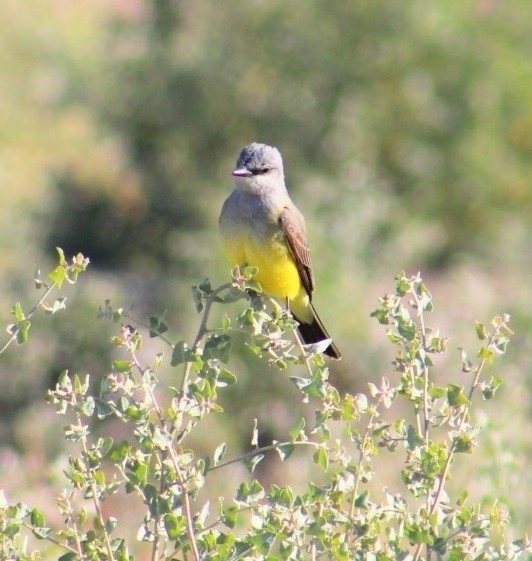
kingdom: Animalia
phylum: Chordata
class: Aves
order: Passeriformes
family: Tyrannidae
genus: Tyrannus
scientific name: Tyrannus verticalis
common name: Western kingbird
